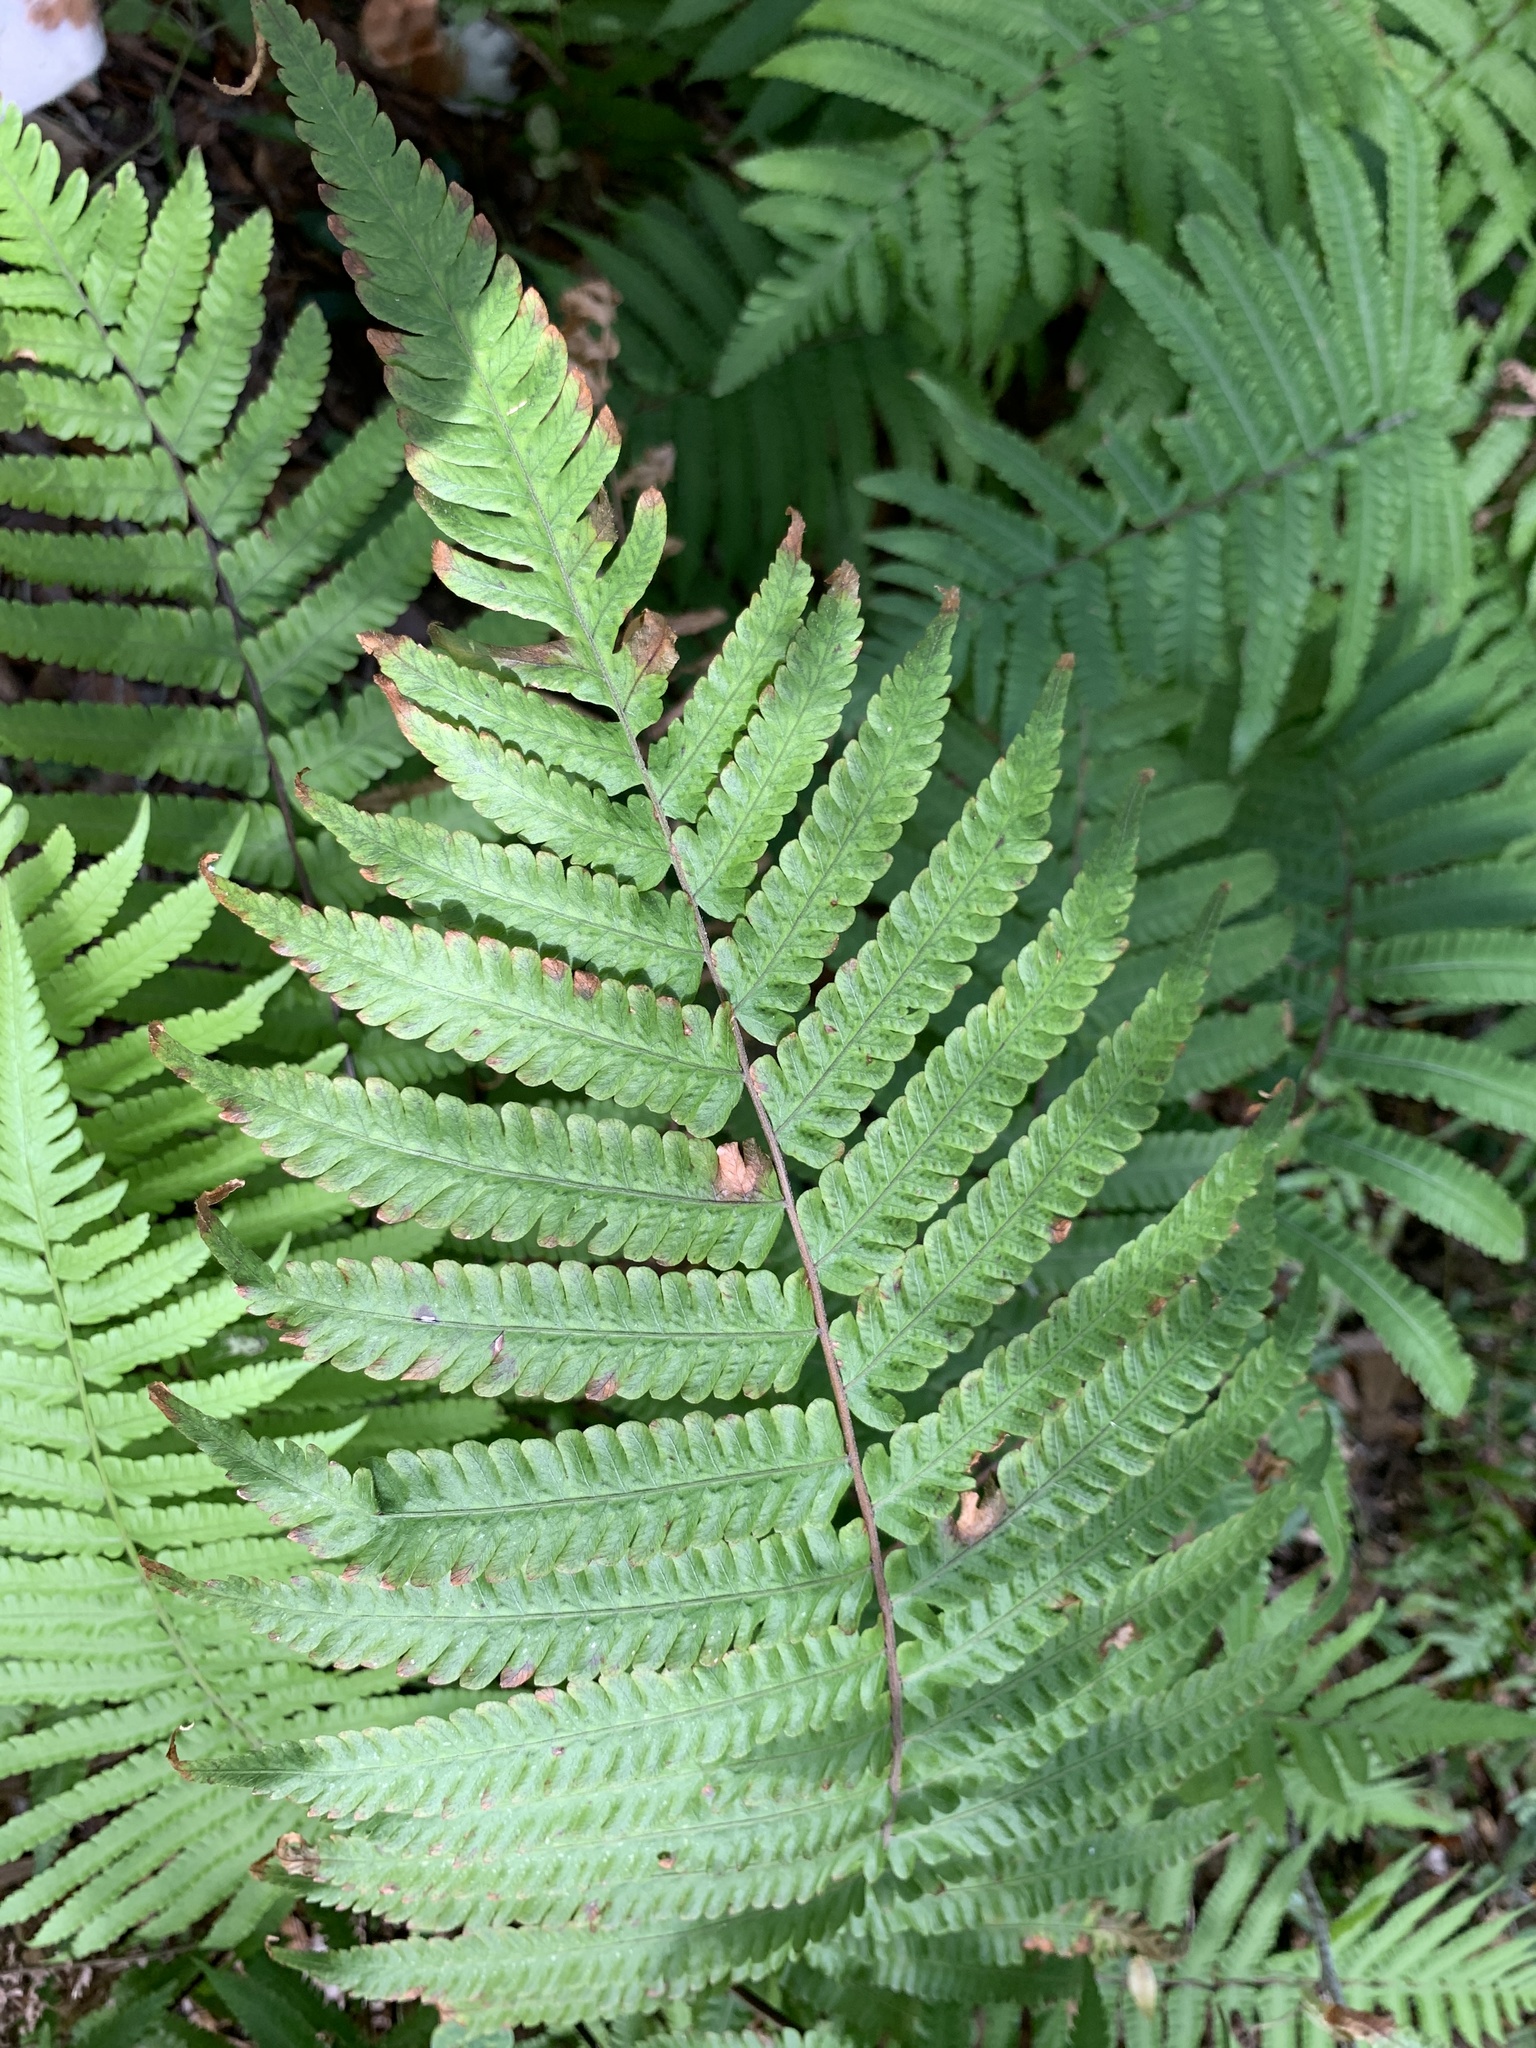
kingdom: Plantae
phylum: Tracheophyta
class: Polypodiopsida
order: Polypodiales
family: Thelypteridaceae
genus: Christella
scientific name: Christella dentata
